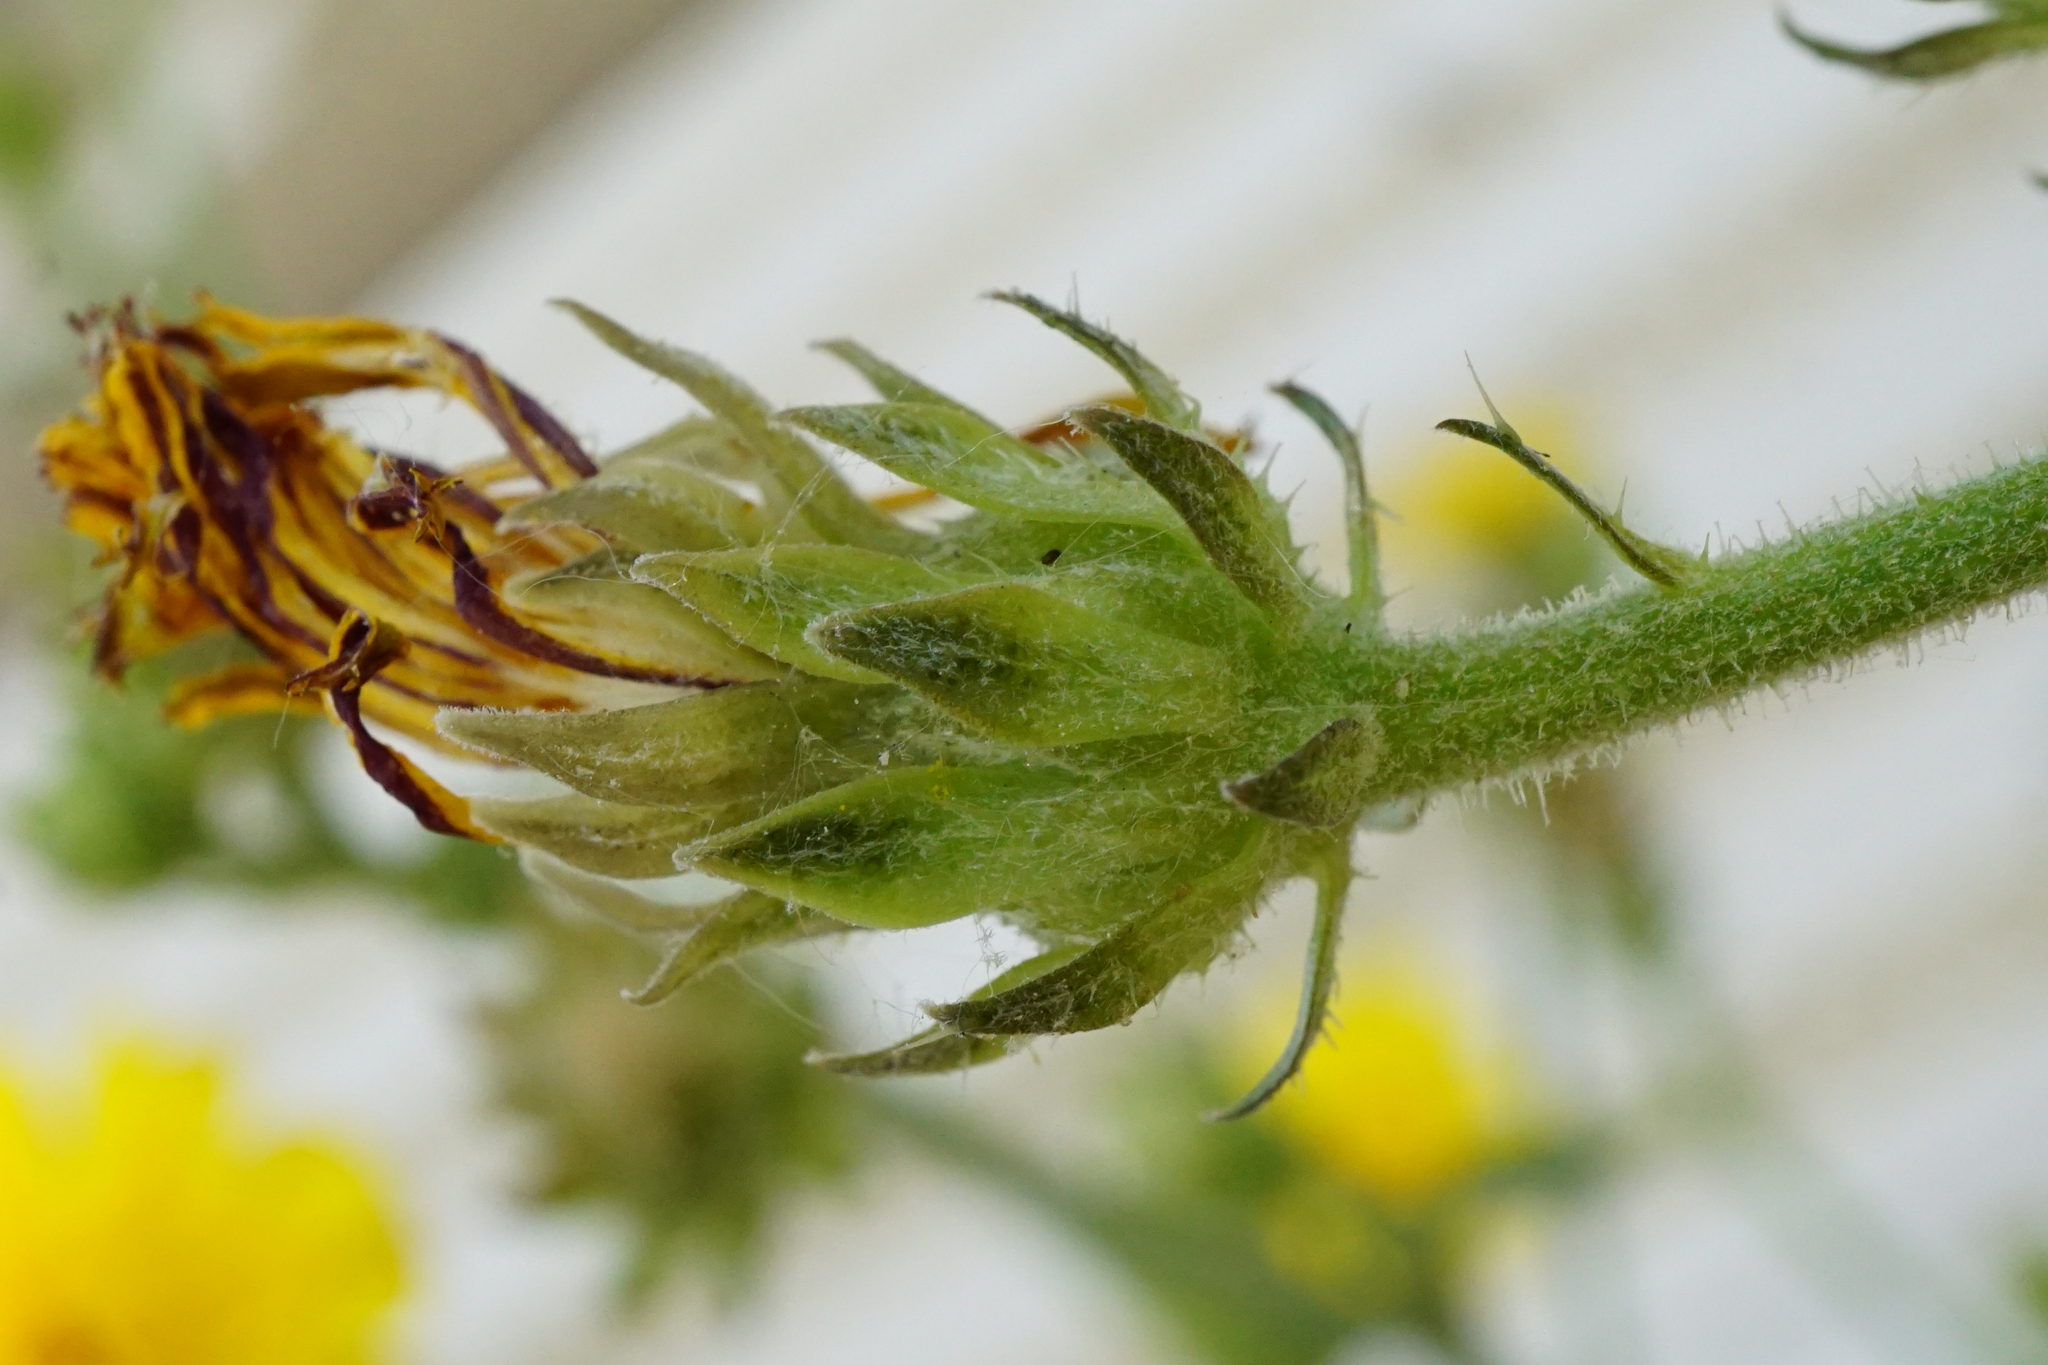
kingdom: Plantae
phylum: Tracheophyta
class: Magnoliopsida
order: Asterales
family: Asteraceae
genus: Picris
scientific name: Picris hieracioides
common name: Hawkweed oxtongue
